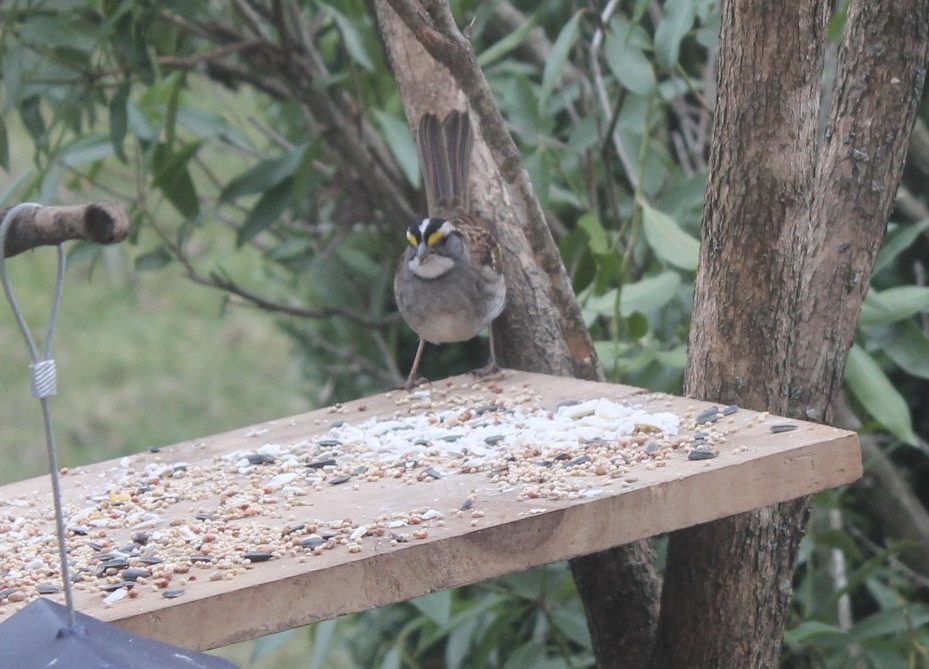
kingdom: Animalia
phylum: Chordata
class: Aves
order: Passeriformes
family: Passerellidae
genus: Zonotrichia
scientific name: Zonotrichia albicollis
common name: White-throated sparrow
